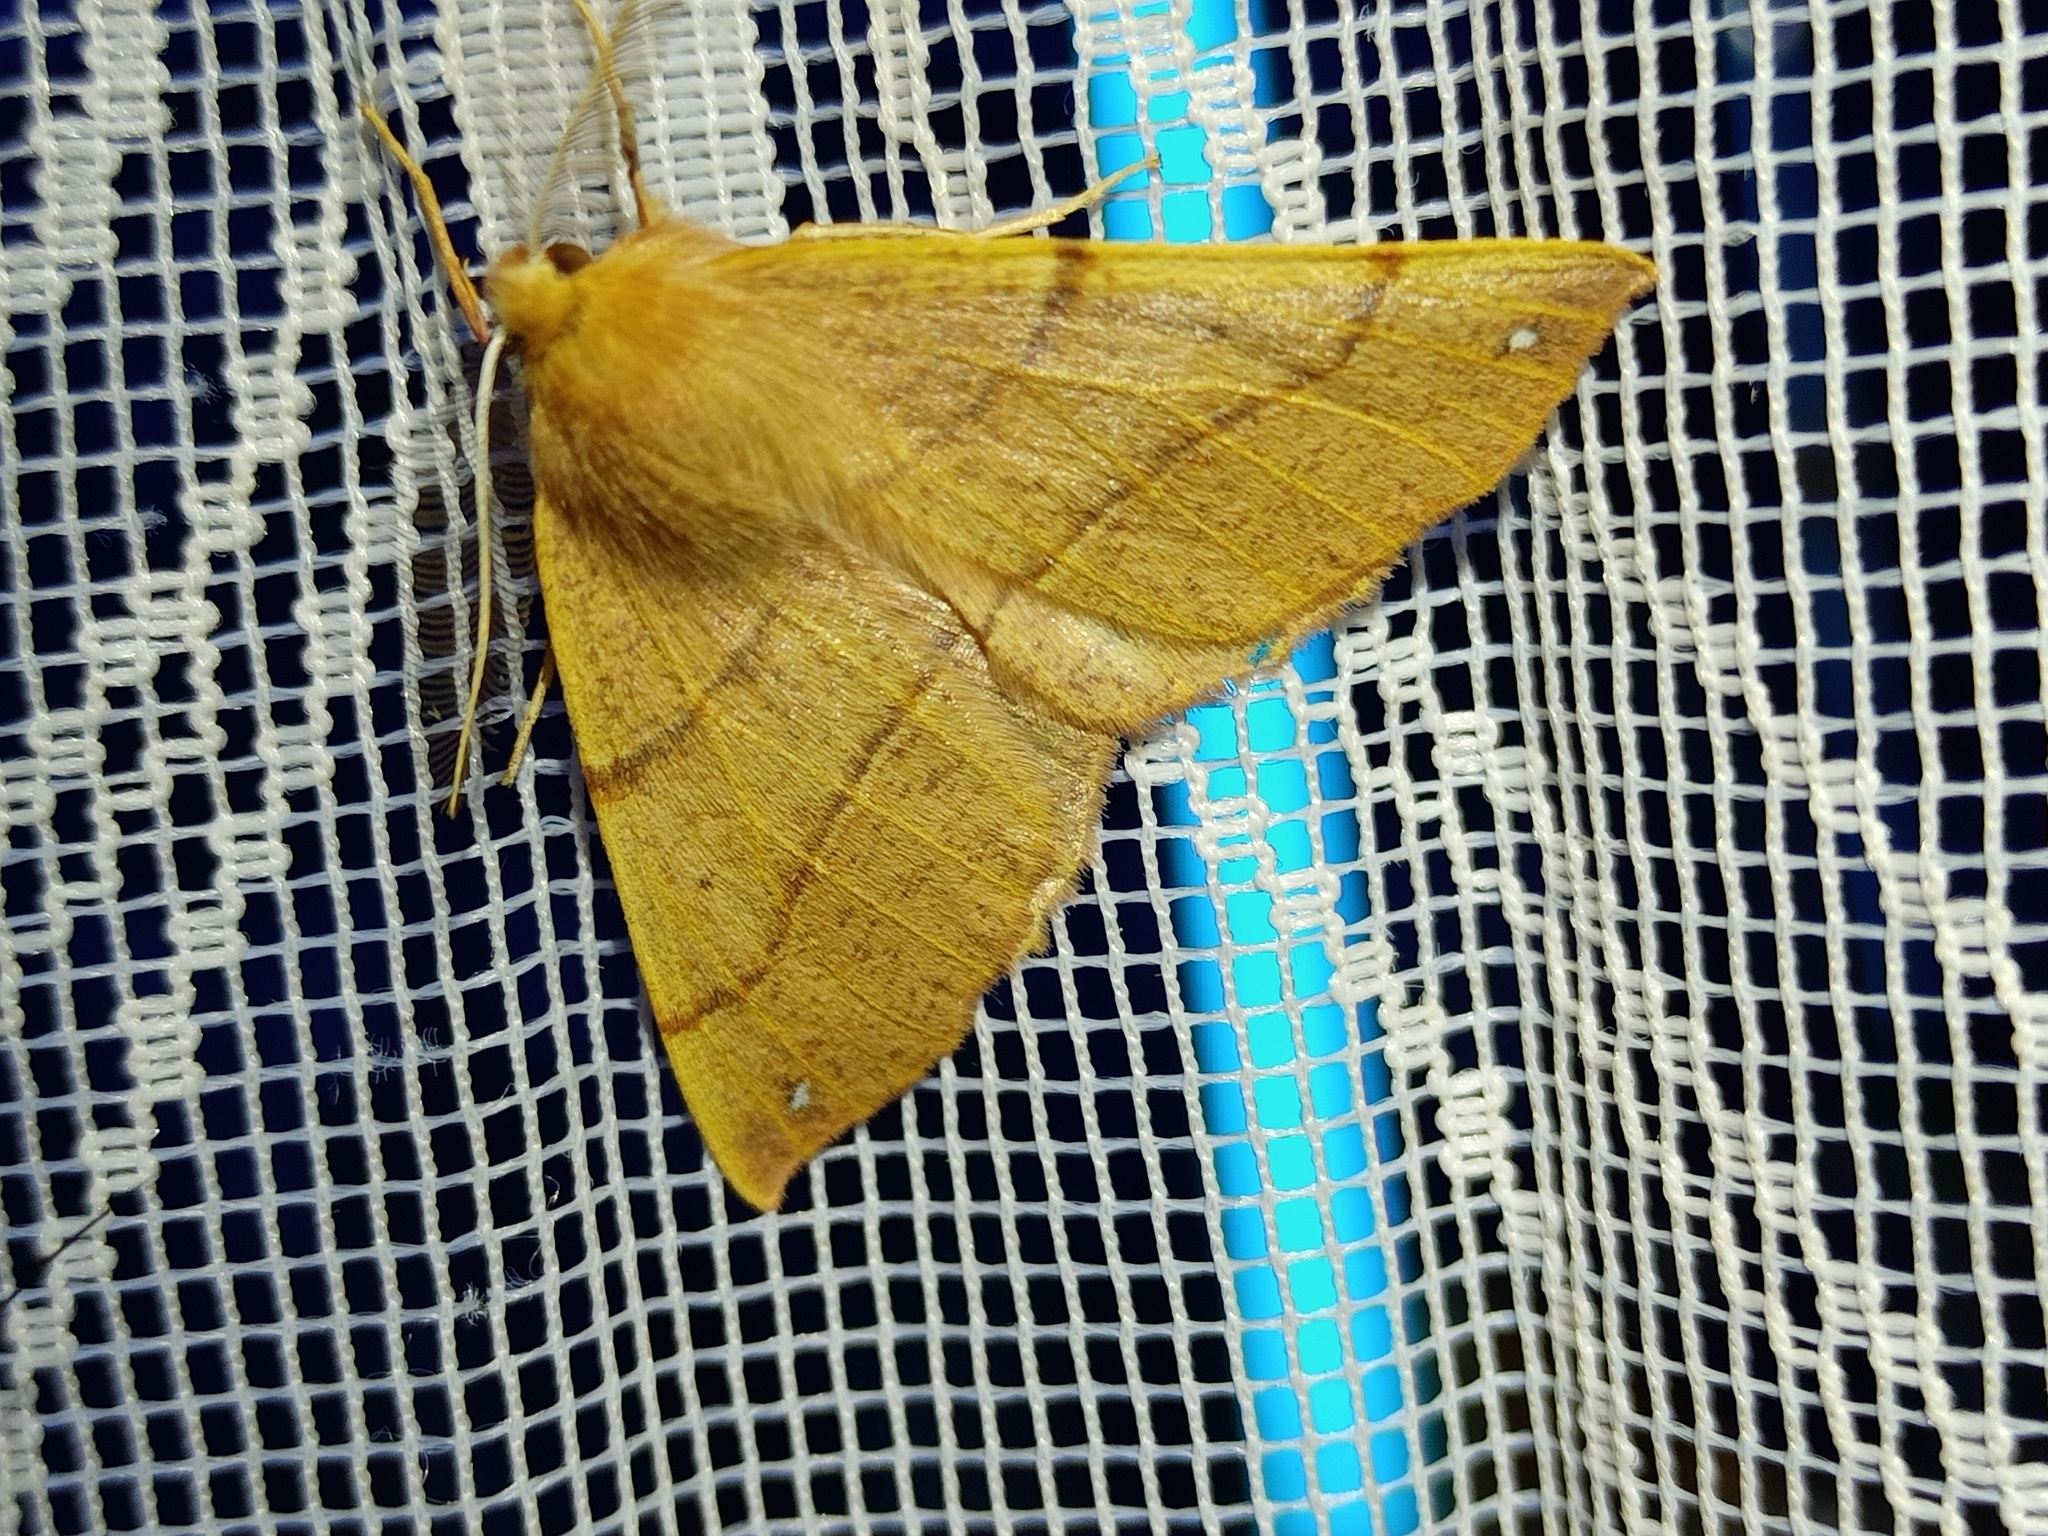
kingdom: Animalia
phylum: Arthropoda
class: Insecta
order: Lepidoptera
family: Geometridae
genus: Colotois
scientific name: Colotois pennaria
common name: Feathered thorn
